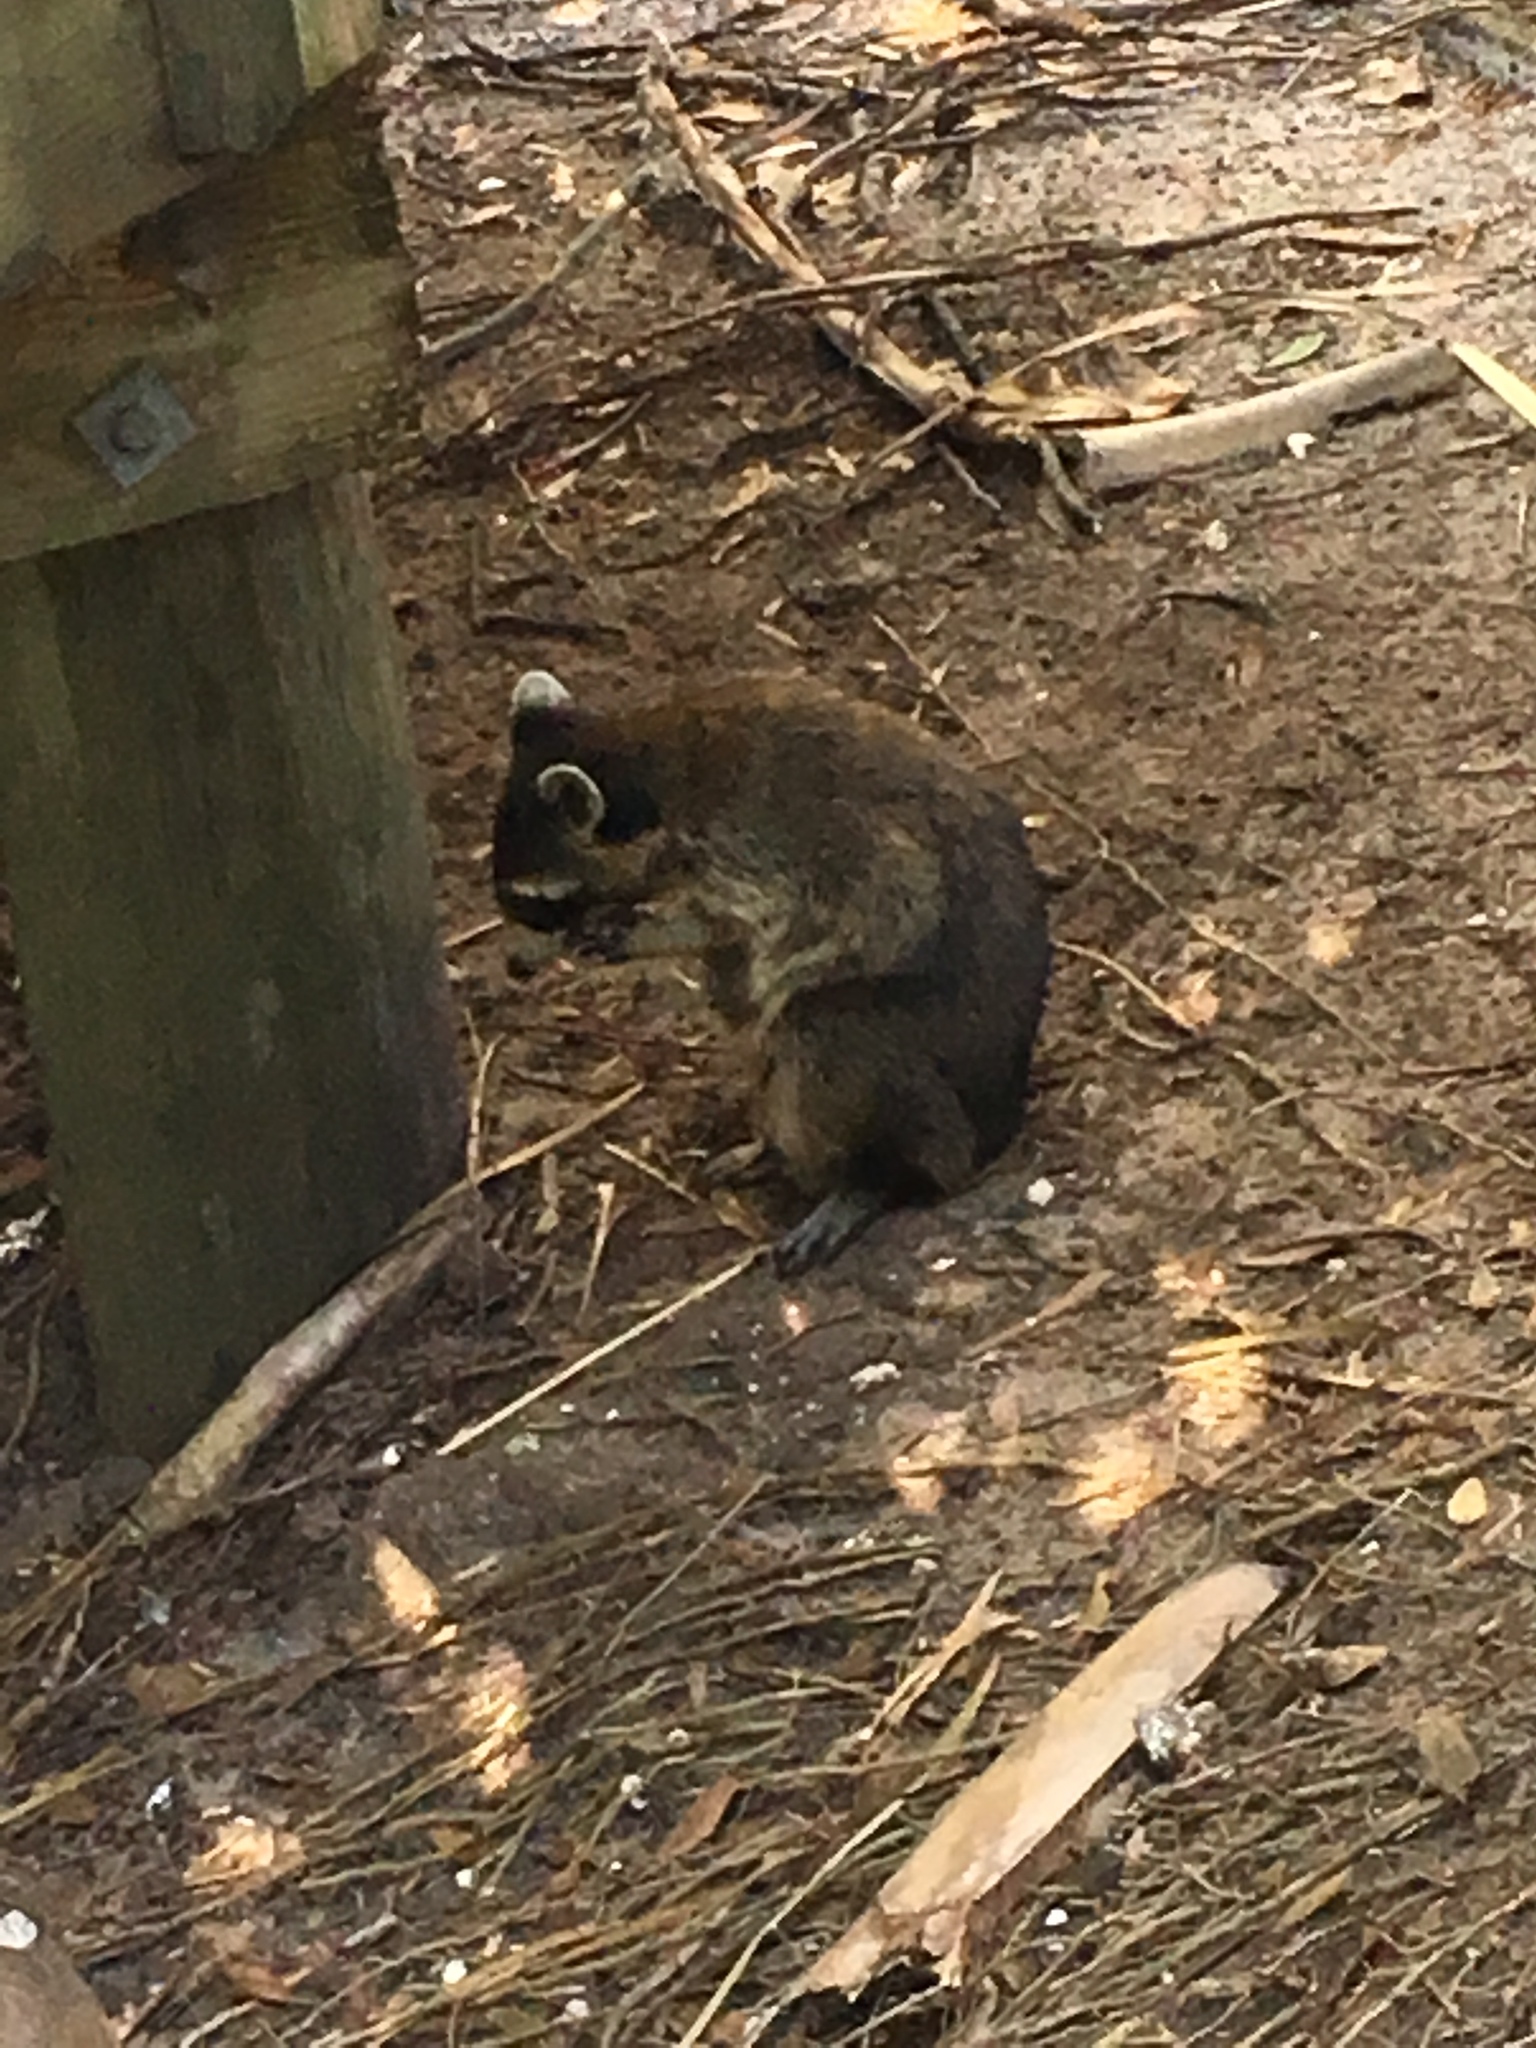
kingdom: Animalia
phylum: Chordata
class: Mammalia
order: Carnivora
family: Procyonidae
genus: Procyon
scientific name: Procyon lotor
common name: Raccoon
